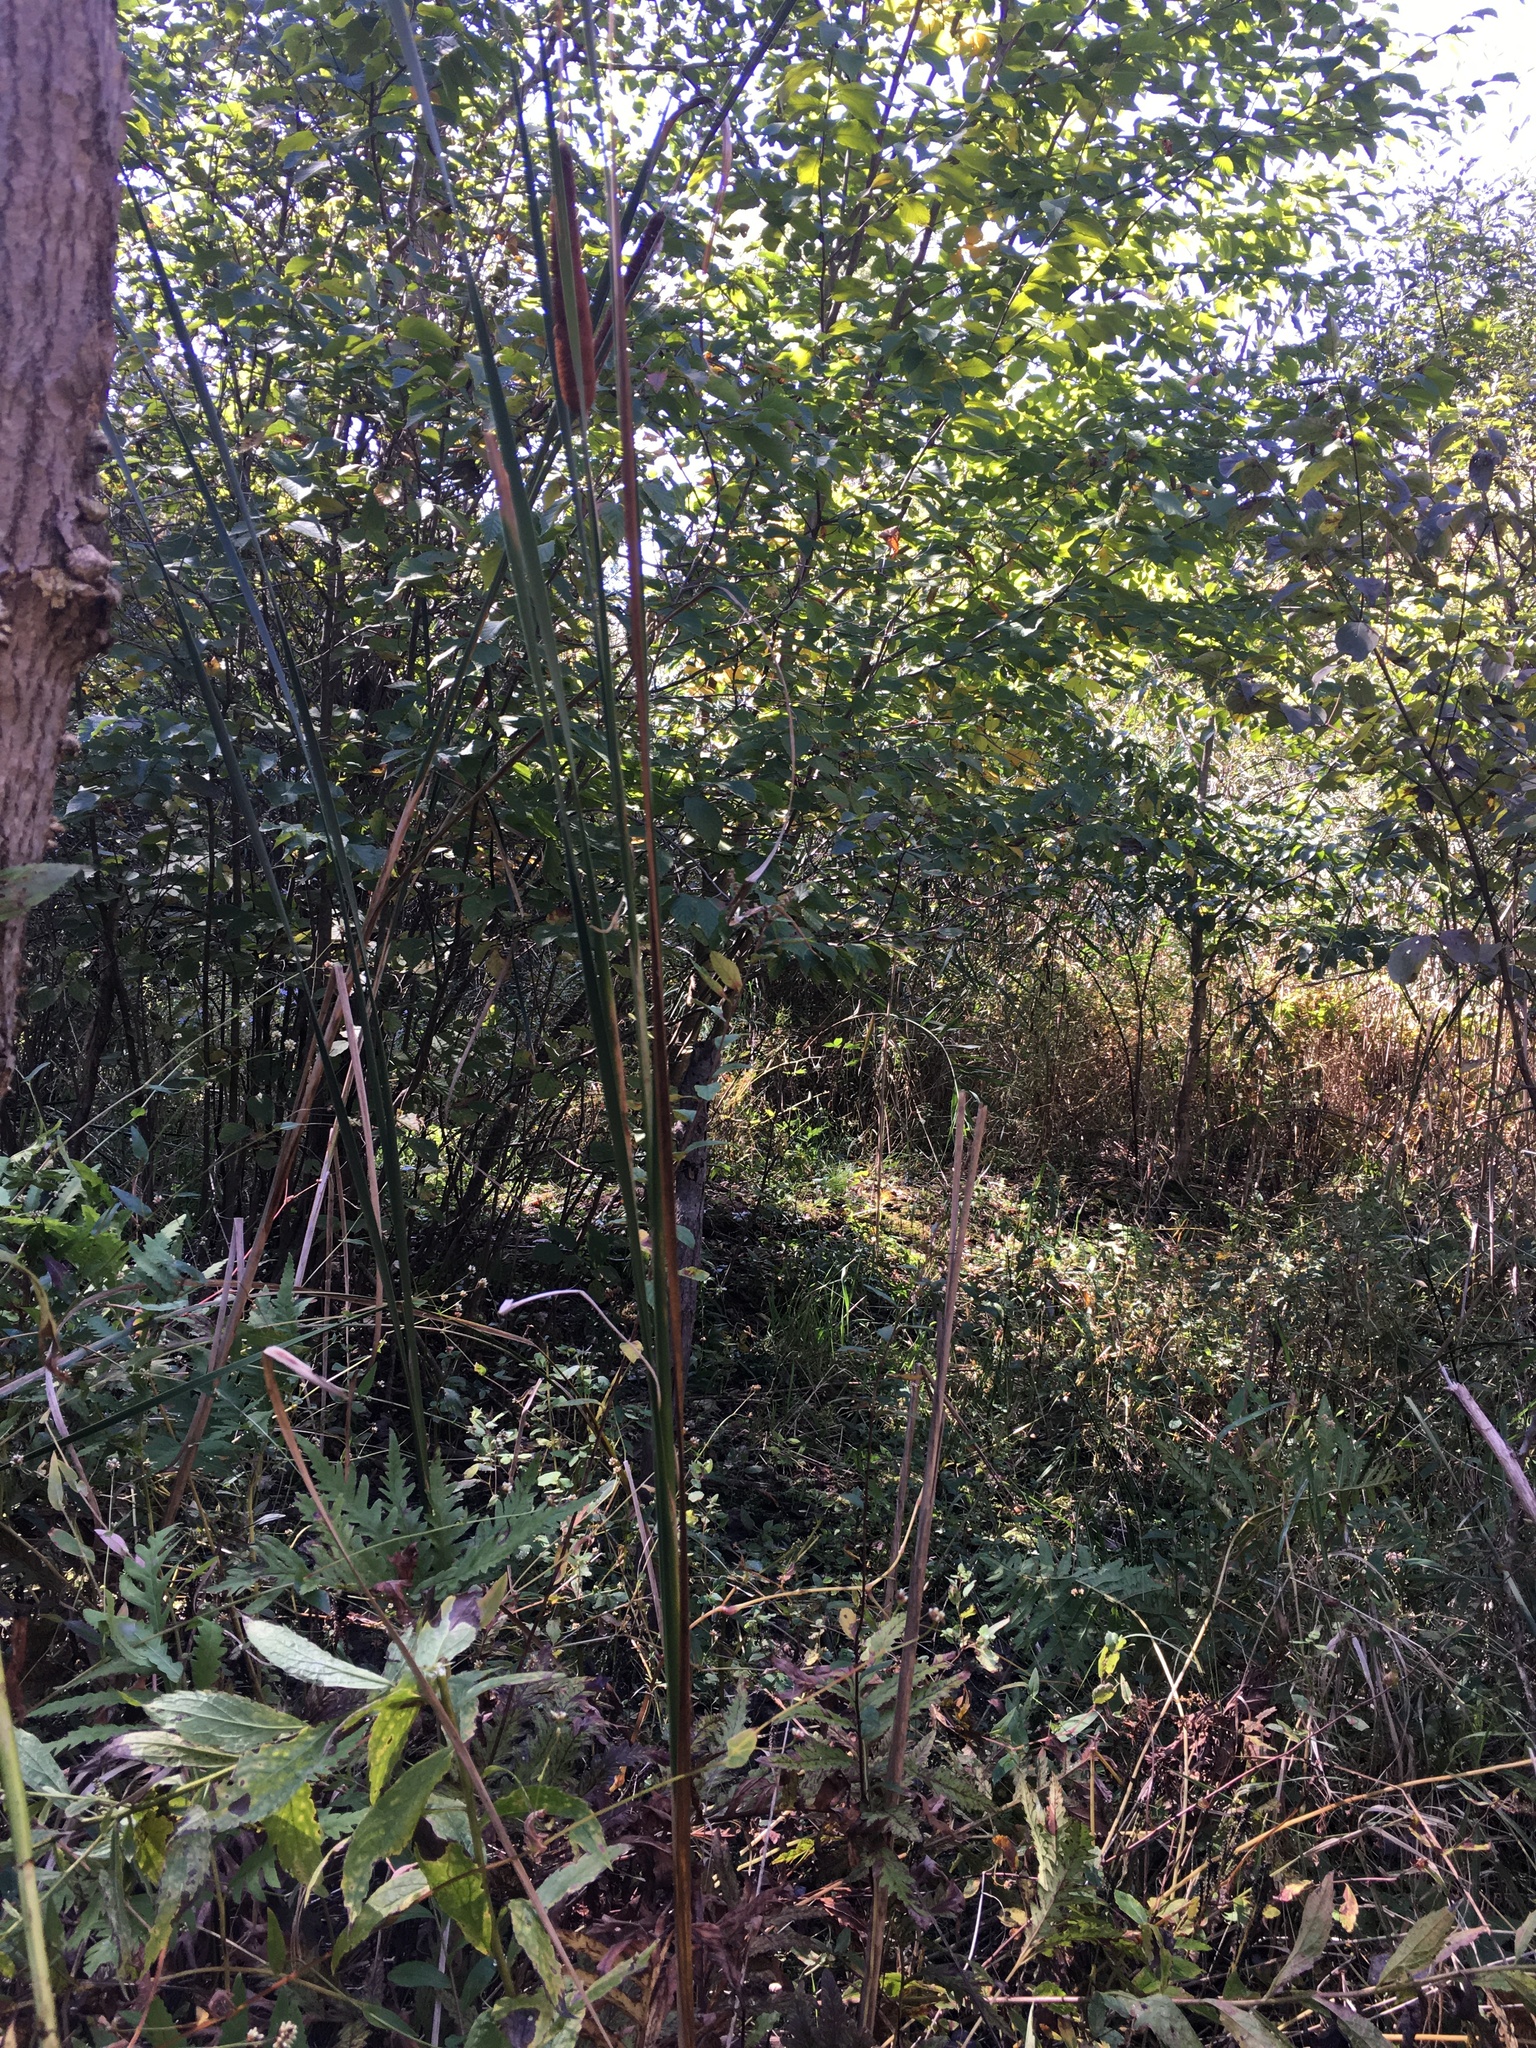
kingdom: Plantae
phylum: Tracheophyta
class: Liliopsida
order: Poales
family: Typhaceae
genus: Typha
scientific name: Typha angustifolia
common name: Lesser bulrush
